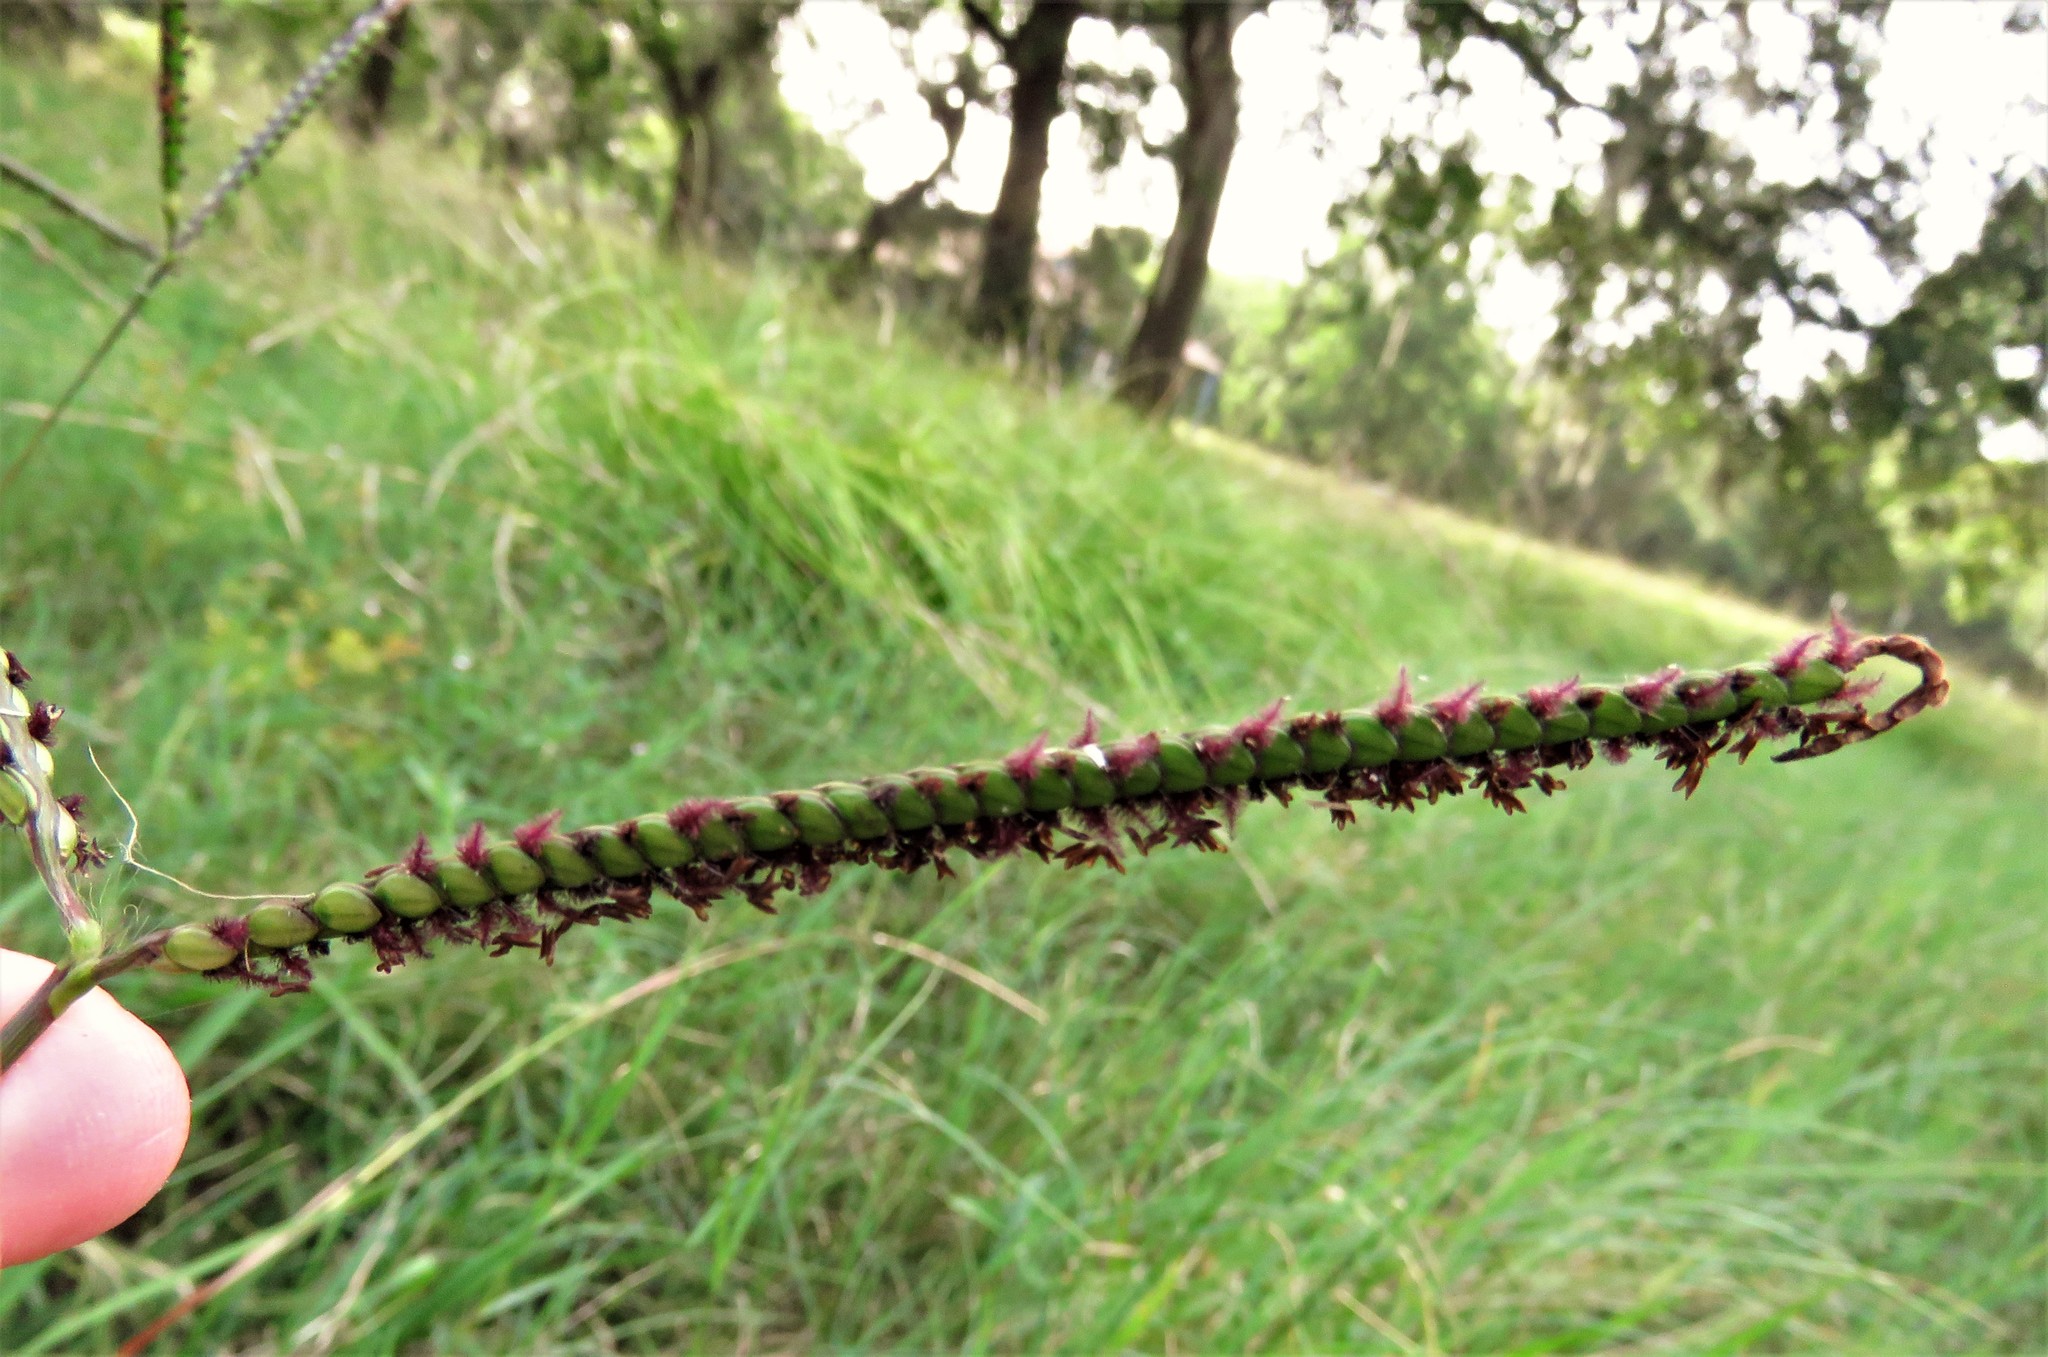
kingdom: Plantae
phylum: Tracheophyta
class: Liliopsida
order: Poales
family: Poaceae
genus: Paspalum
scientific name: Paspalum notatum
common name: Bahiagrass
